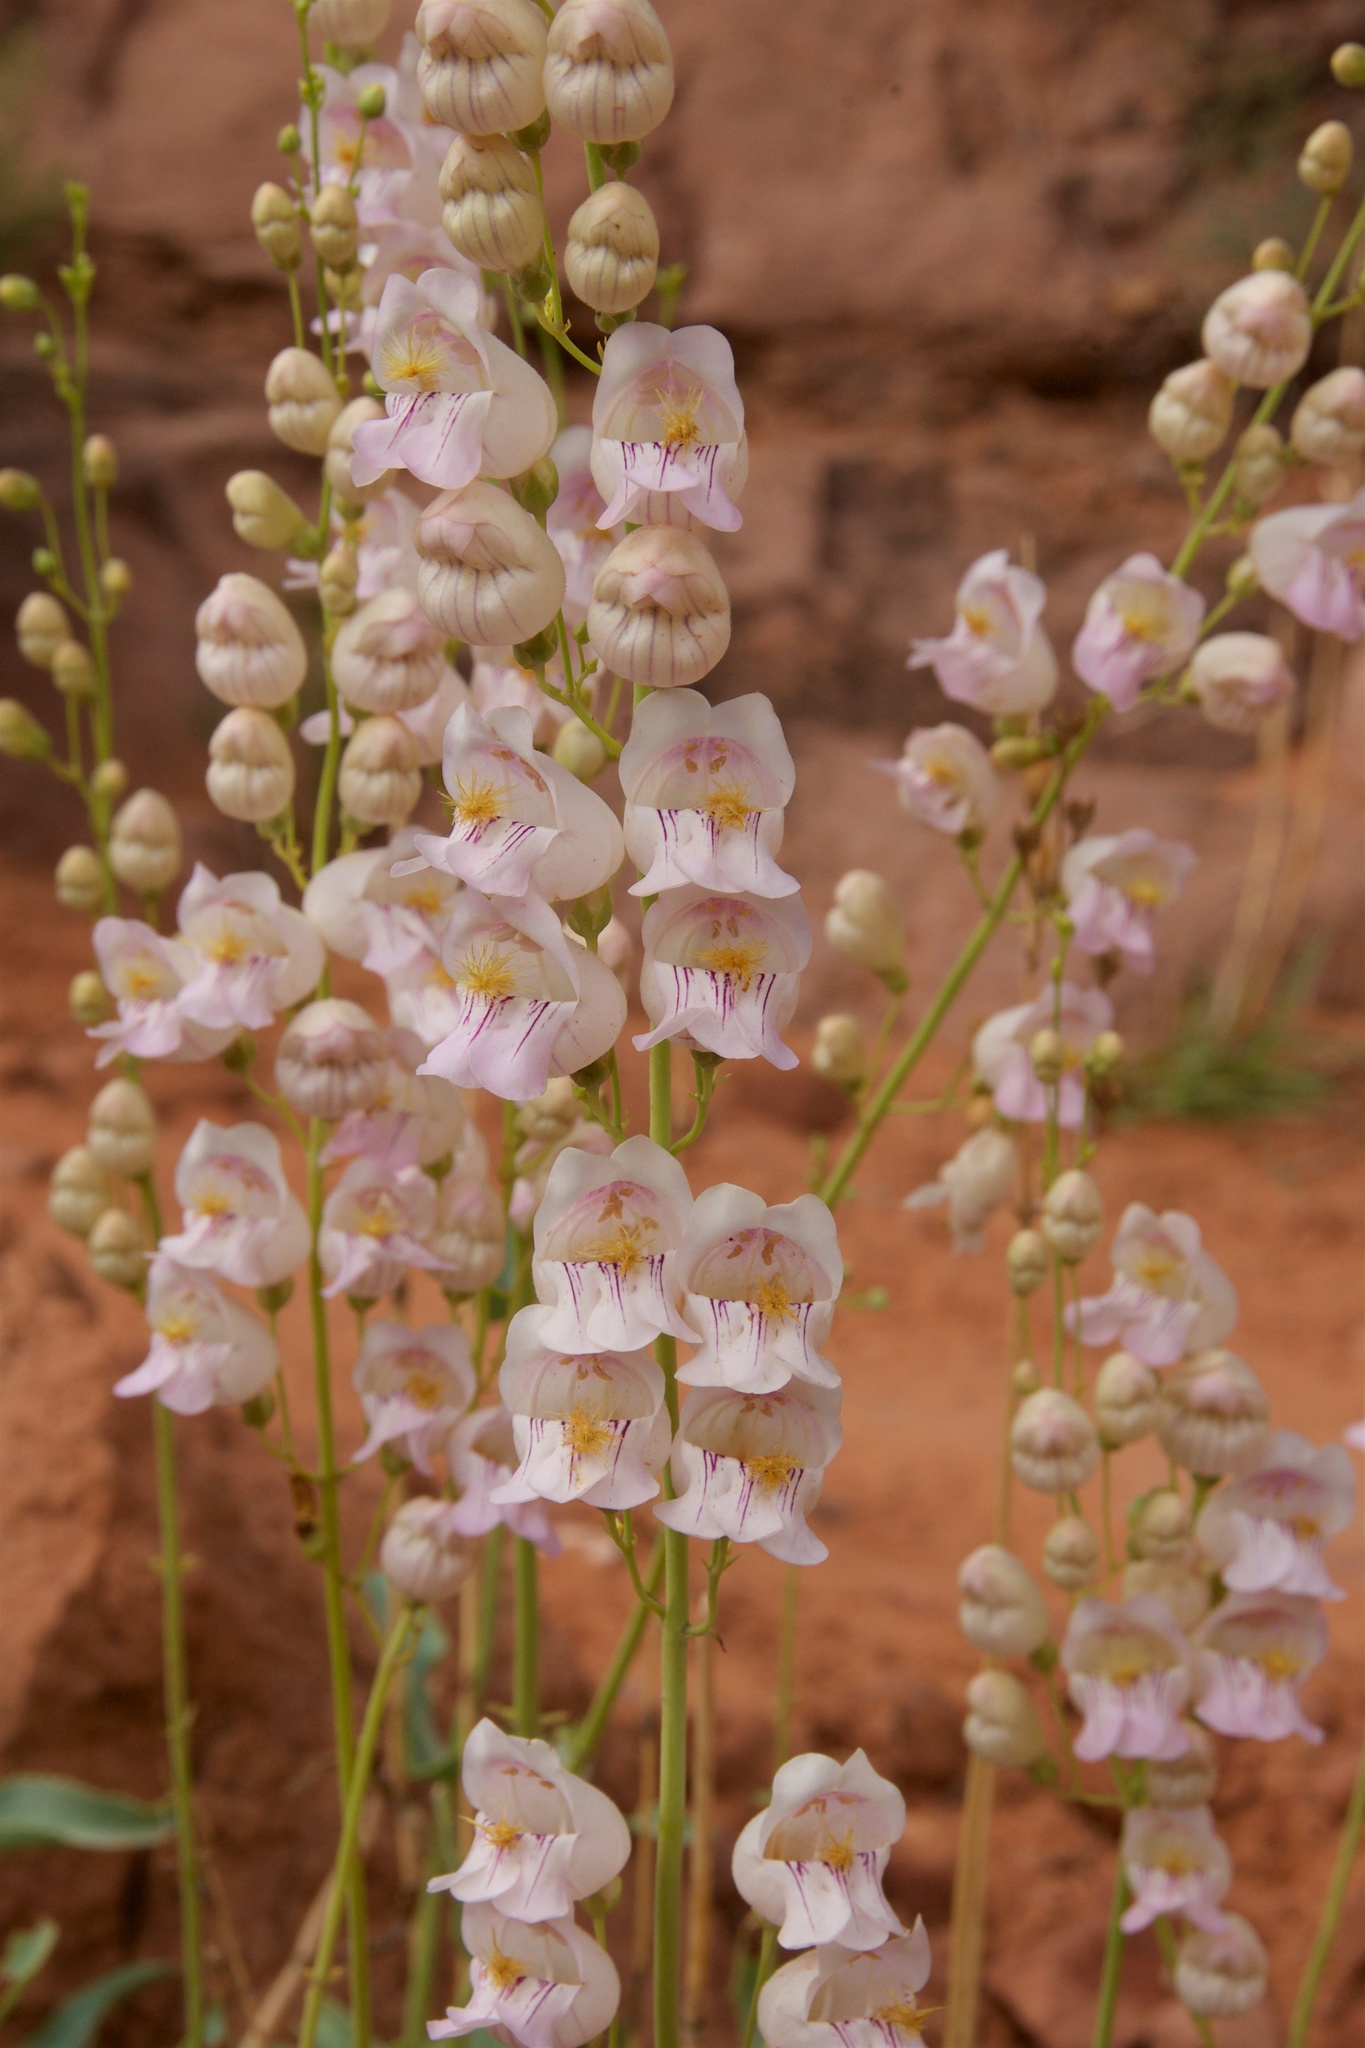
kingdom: Plantae
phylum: Tracheophyta
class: Magnoliopsida
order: Lamiales
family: Plantaginaceae
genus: Penstemon
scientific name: Penstemon palmeri
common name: Palmer penstemon
